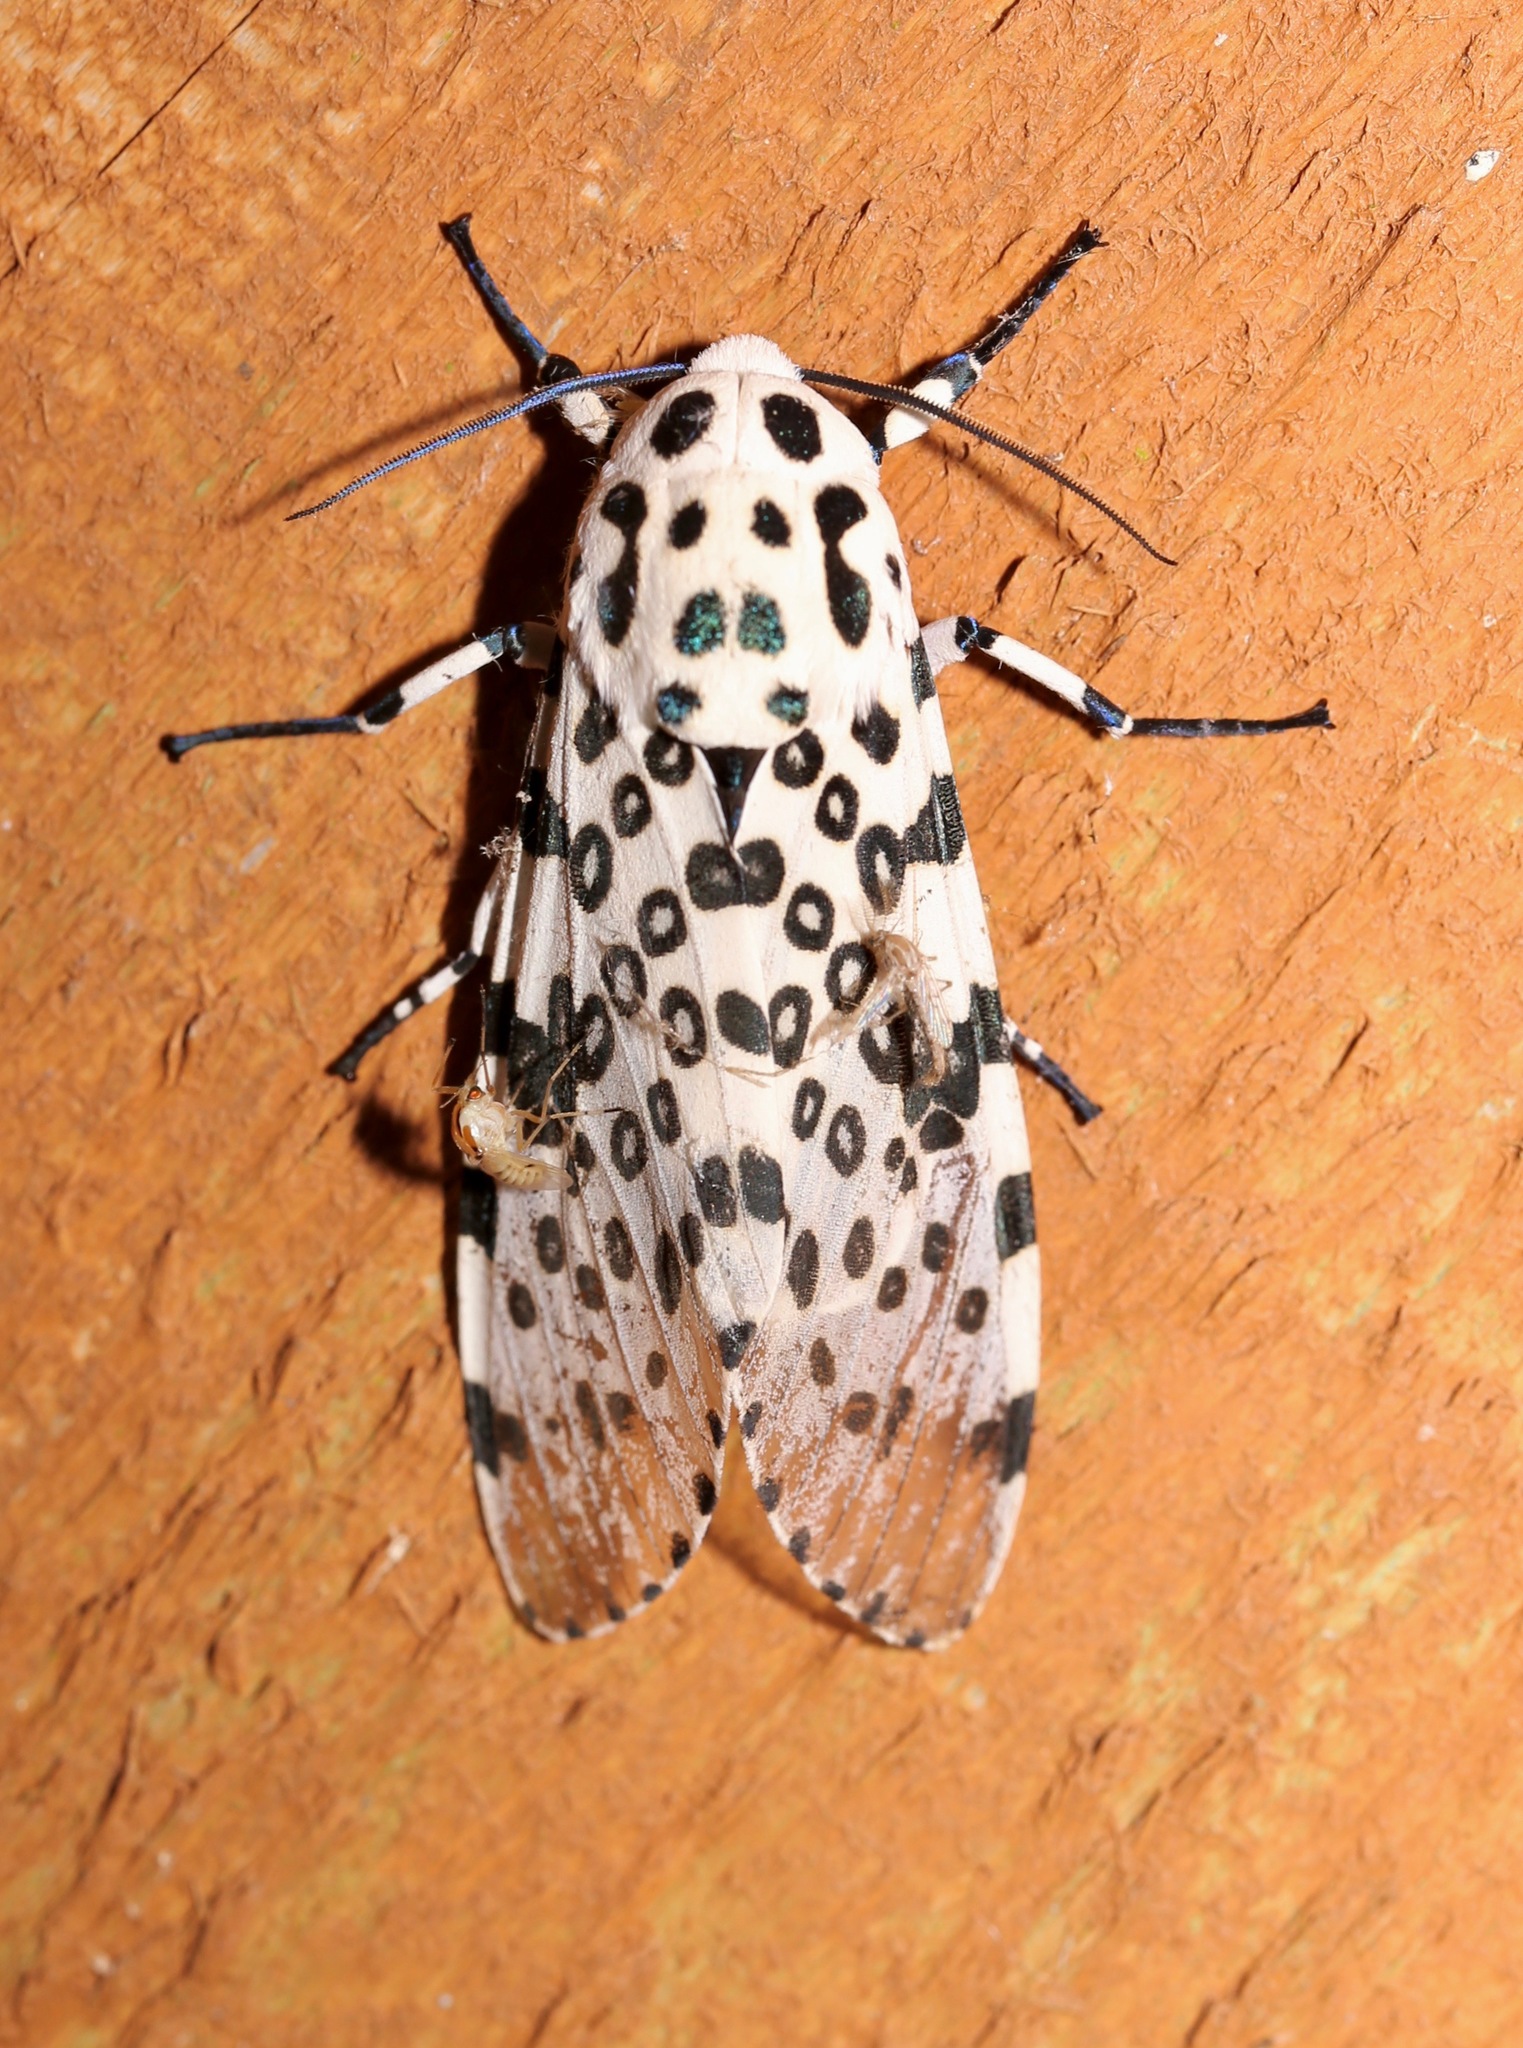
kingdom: Animalia
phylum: Arthropoda
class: Insecta
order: Lepidoptera
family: Erebidae
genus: Hypercompe
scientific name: Hypercompe scribonia
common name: Giant leopard moth
